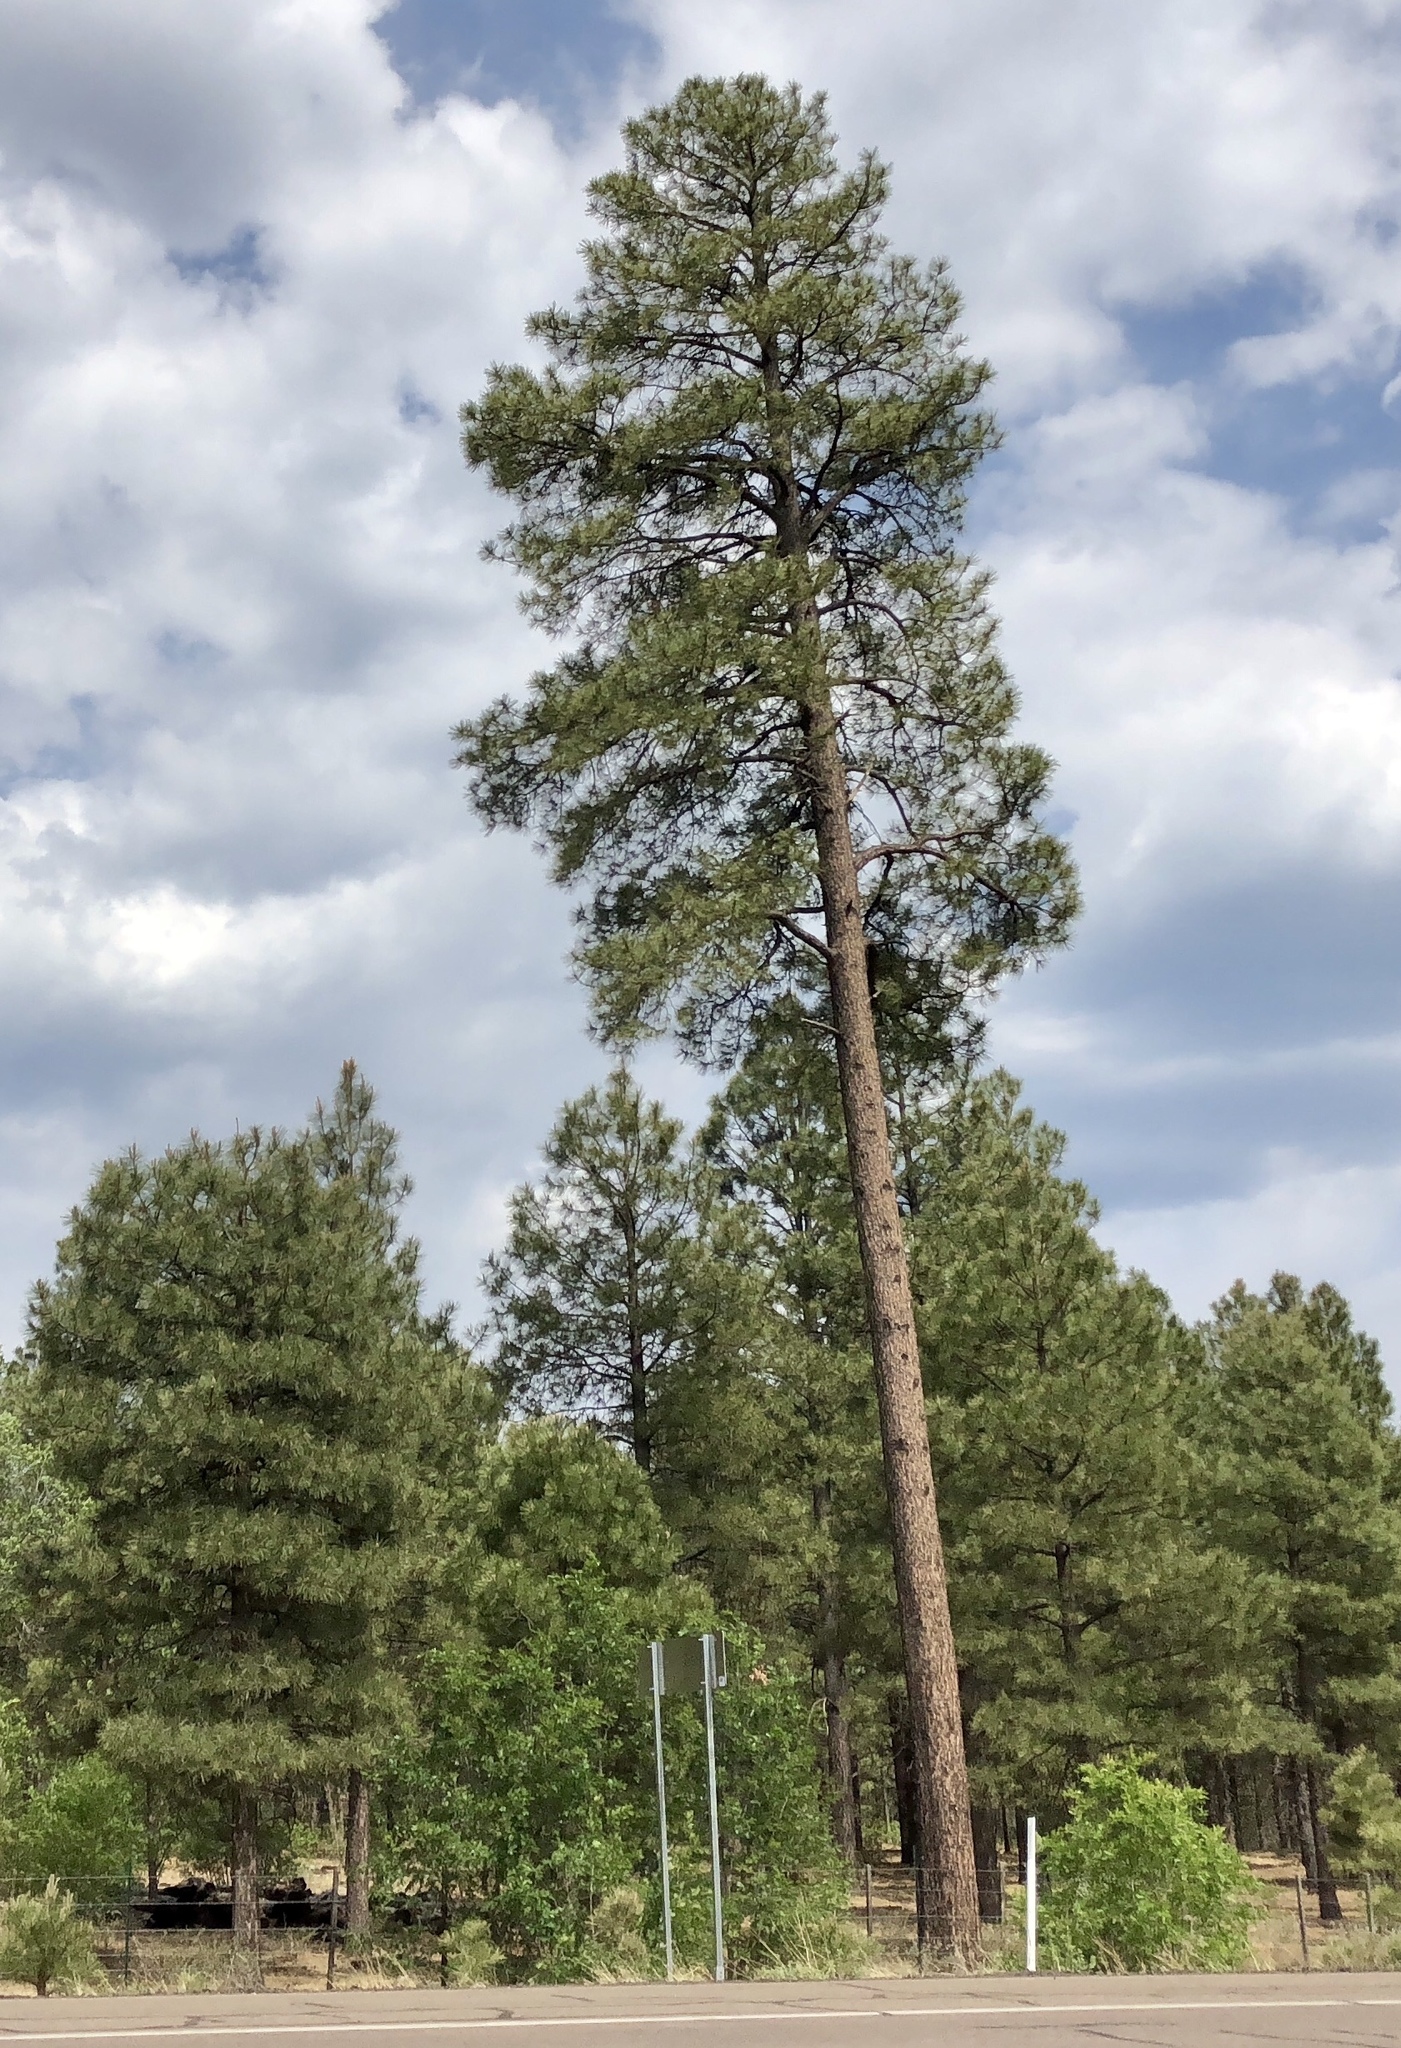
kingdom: Plantae
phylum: Tracheophyta
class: Pinopsida
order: Pinales
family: Pinaceae
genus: Pinus
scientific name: Pinus ponderosa
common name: Western yellow-pine
